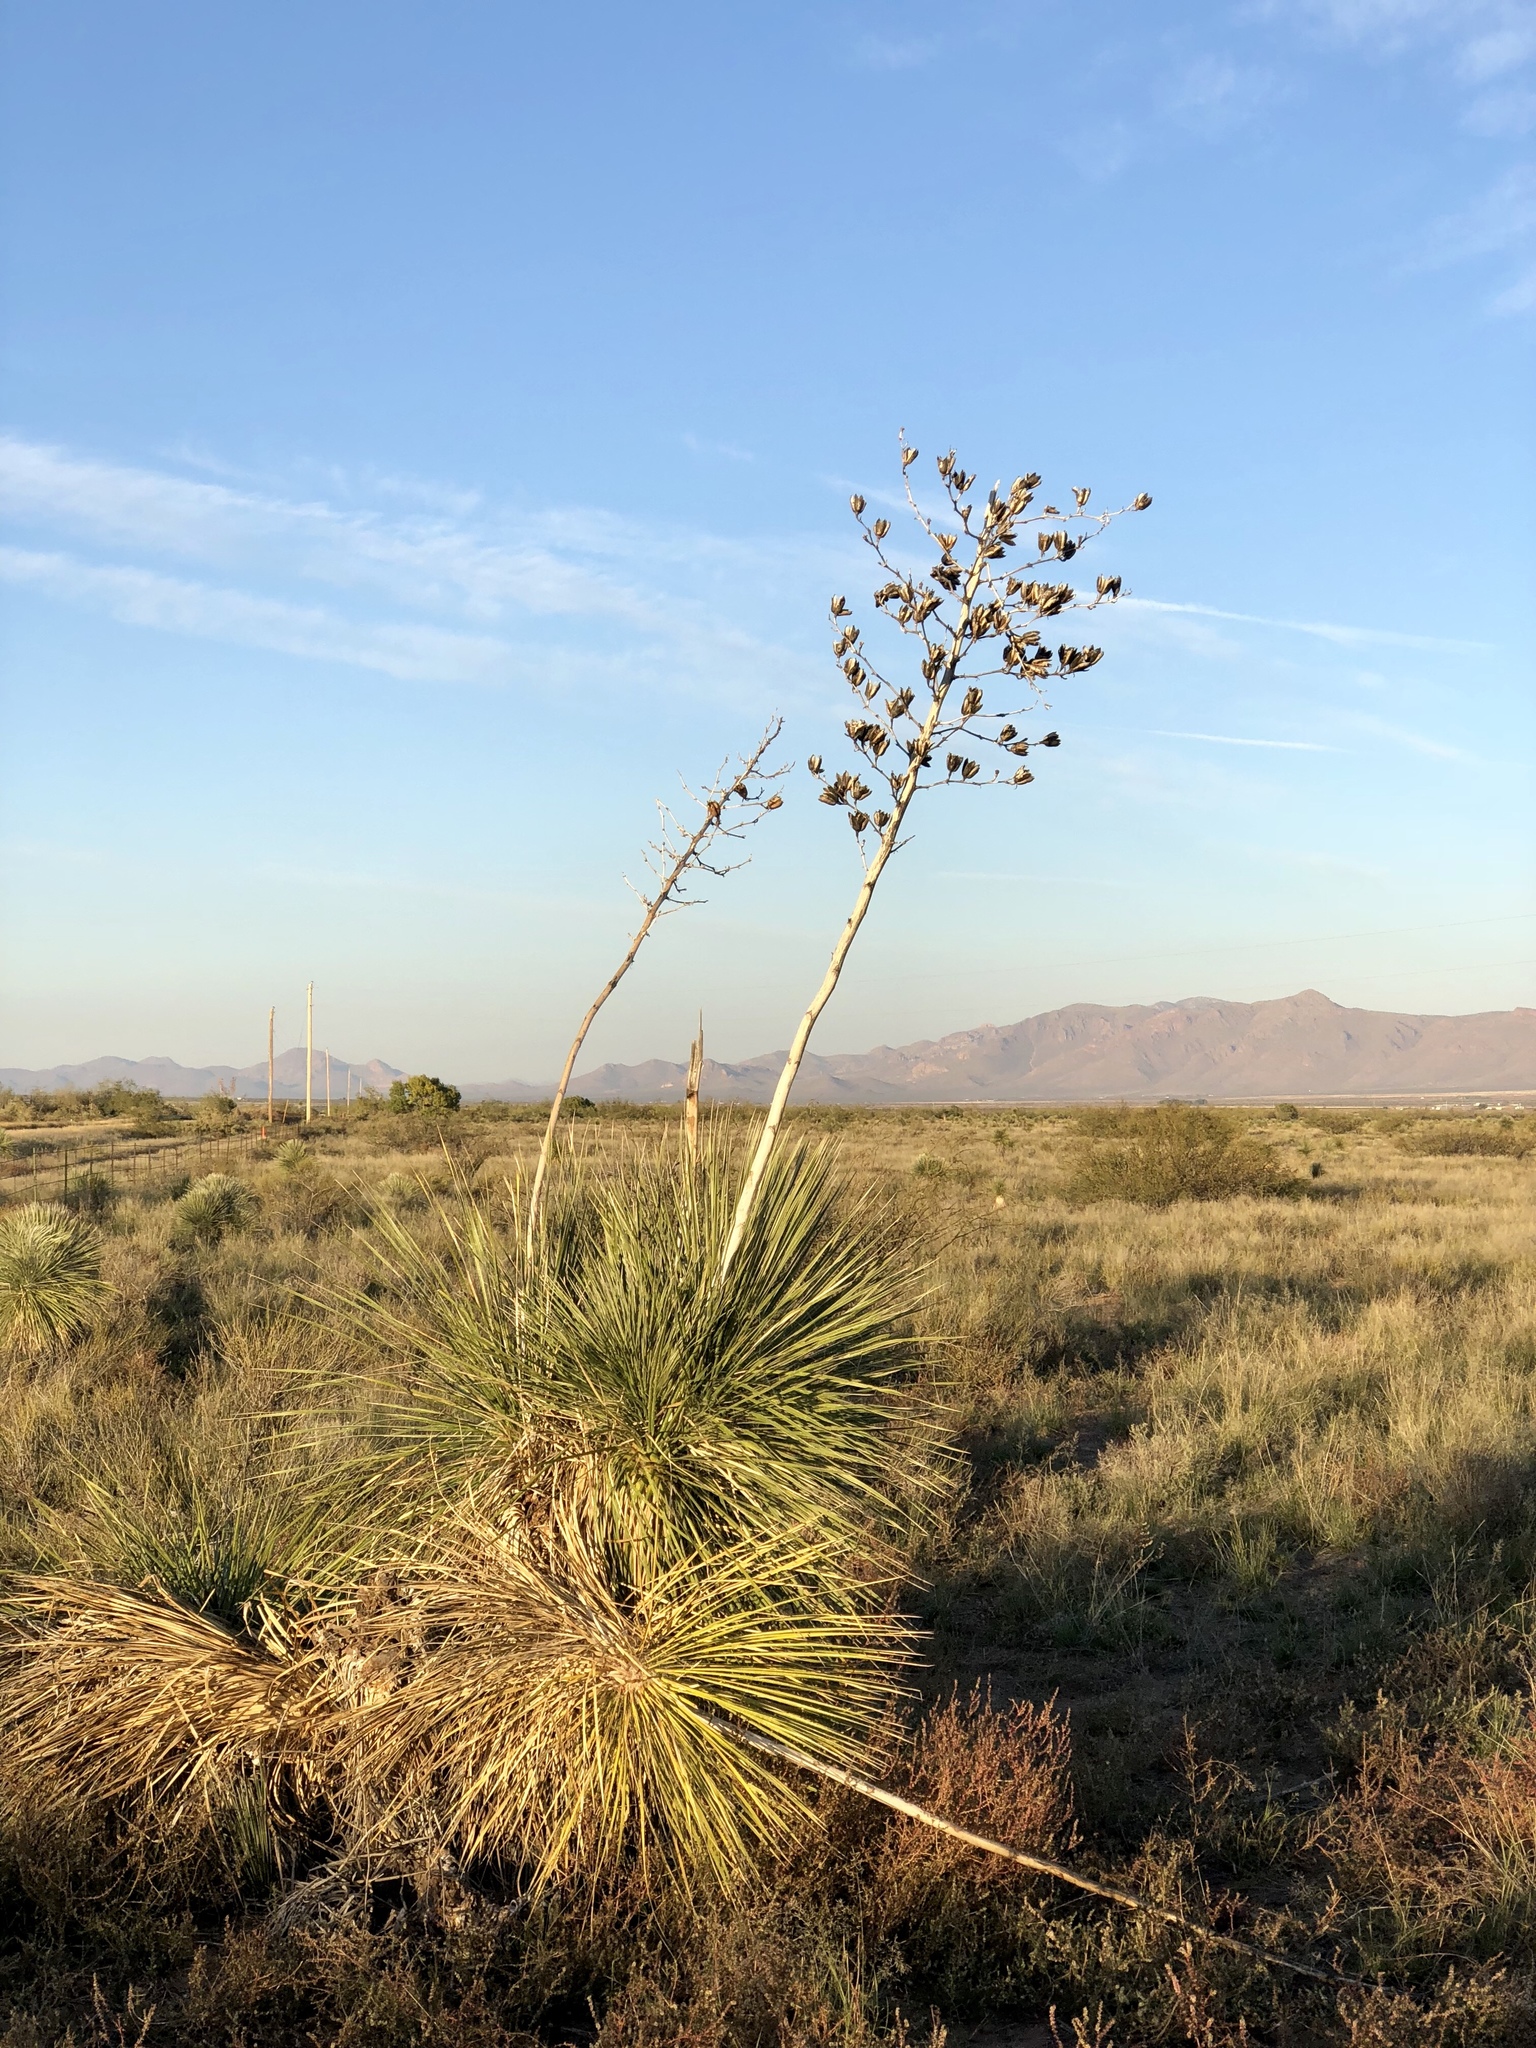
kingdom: Plantae
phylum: Tracheophyta
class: Liliopsida
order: Asparagales
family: Asparagaceae
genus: Yucca
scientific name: Yucca elata
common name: Palmella
